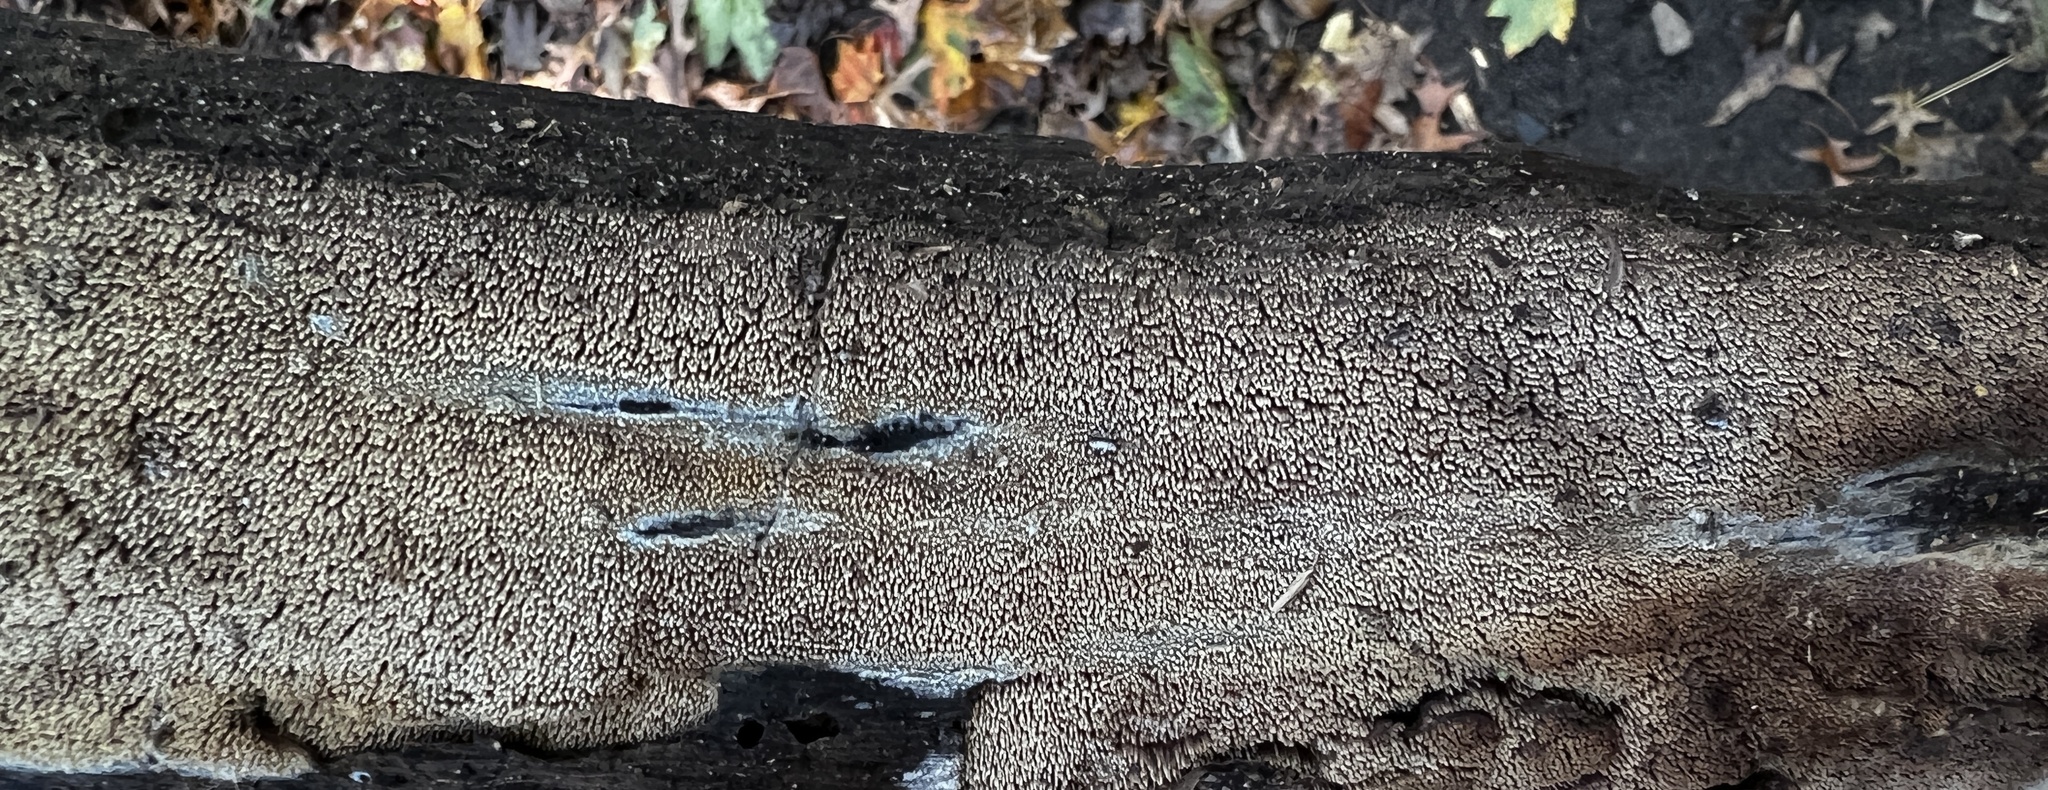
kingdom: Fungi
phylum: Basidiomycota
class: Agaricomycetes
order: Polyporales
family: Meruliaceae
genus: Mycoacia
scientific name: Mycoacia fuscoatra
